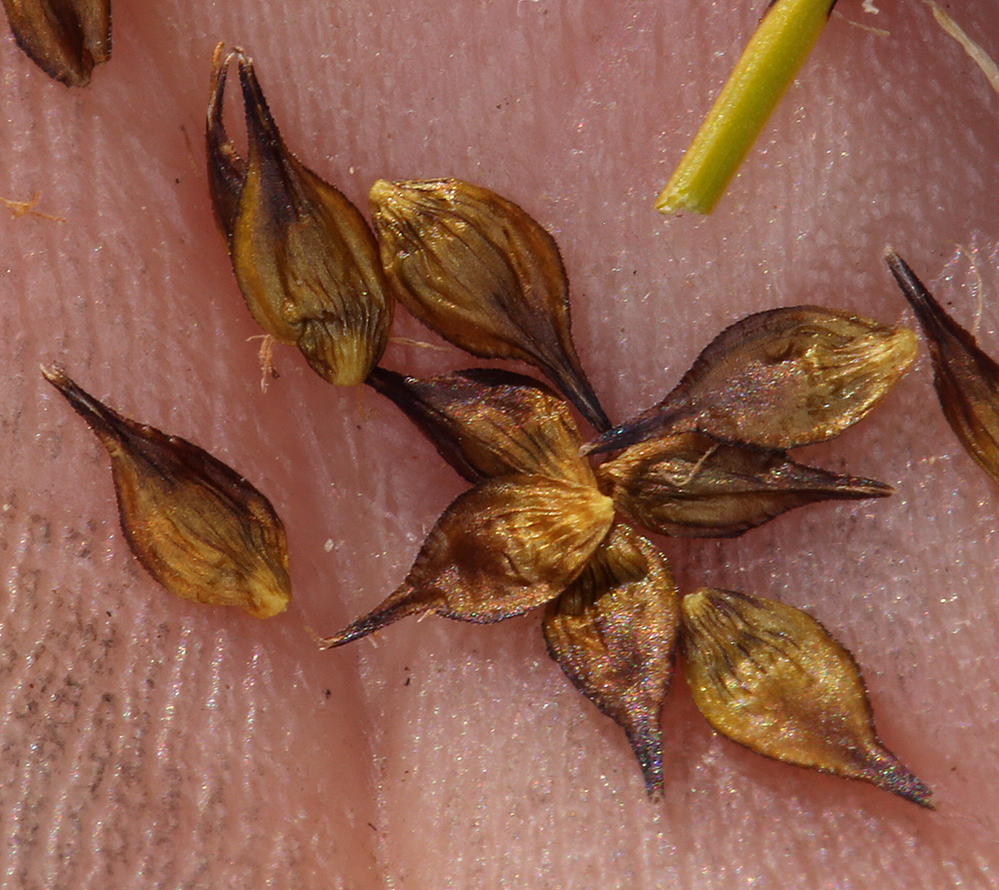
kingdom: Plantae
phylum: Tracheophyta
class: Liliopsida
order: Poales
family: Cyperaceae
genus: Carex
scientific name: Carex haydeniana
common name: Cloud sedge
